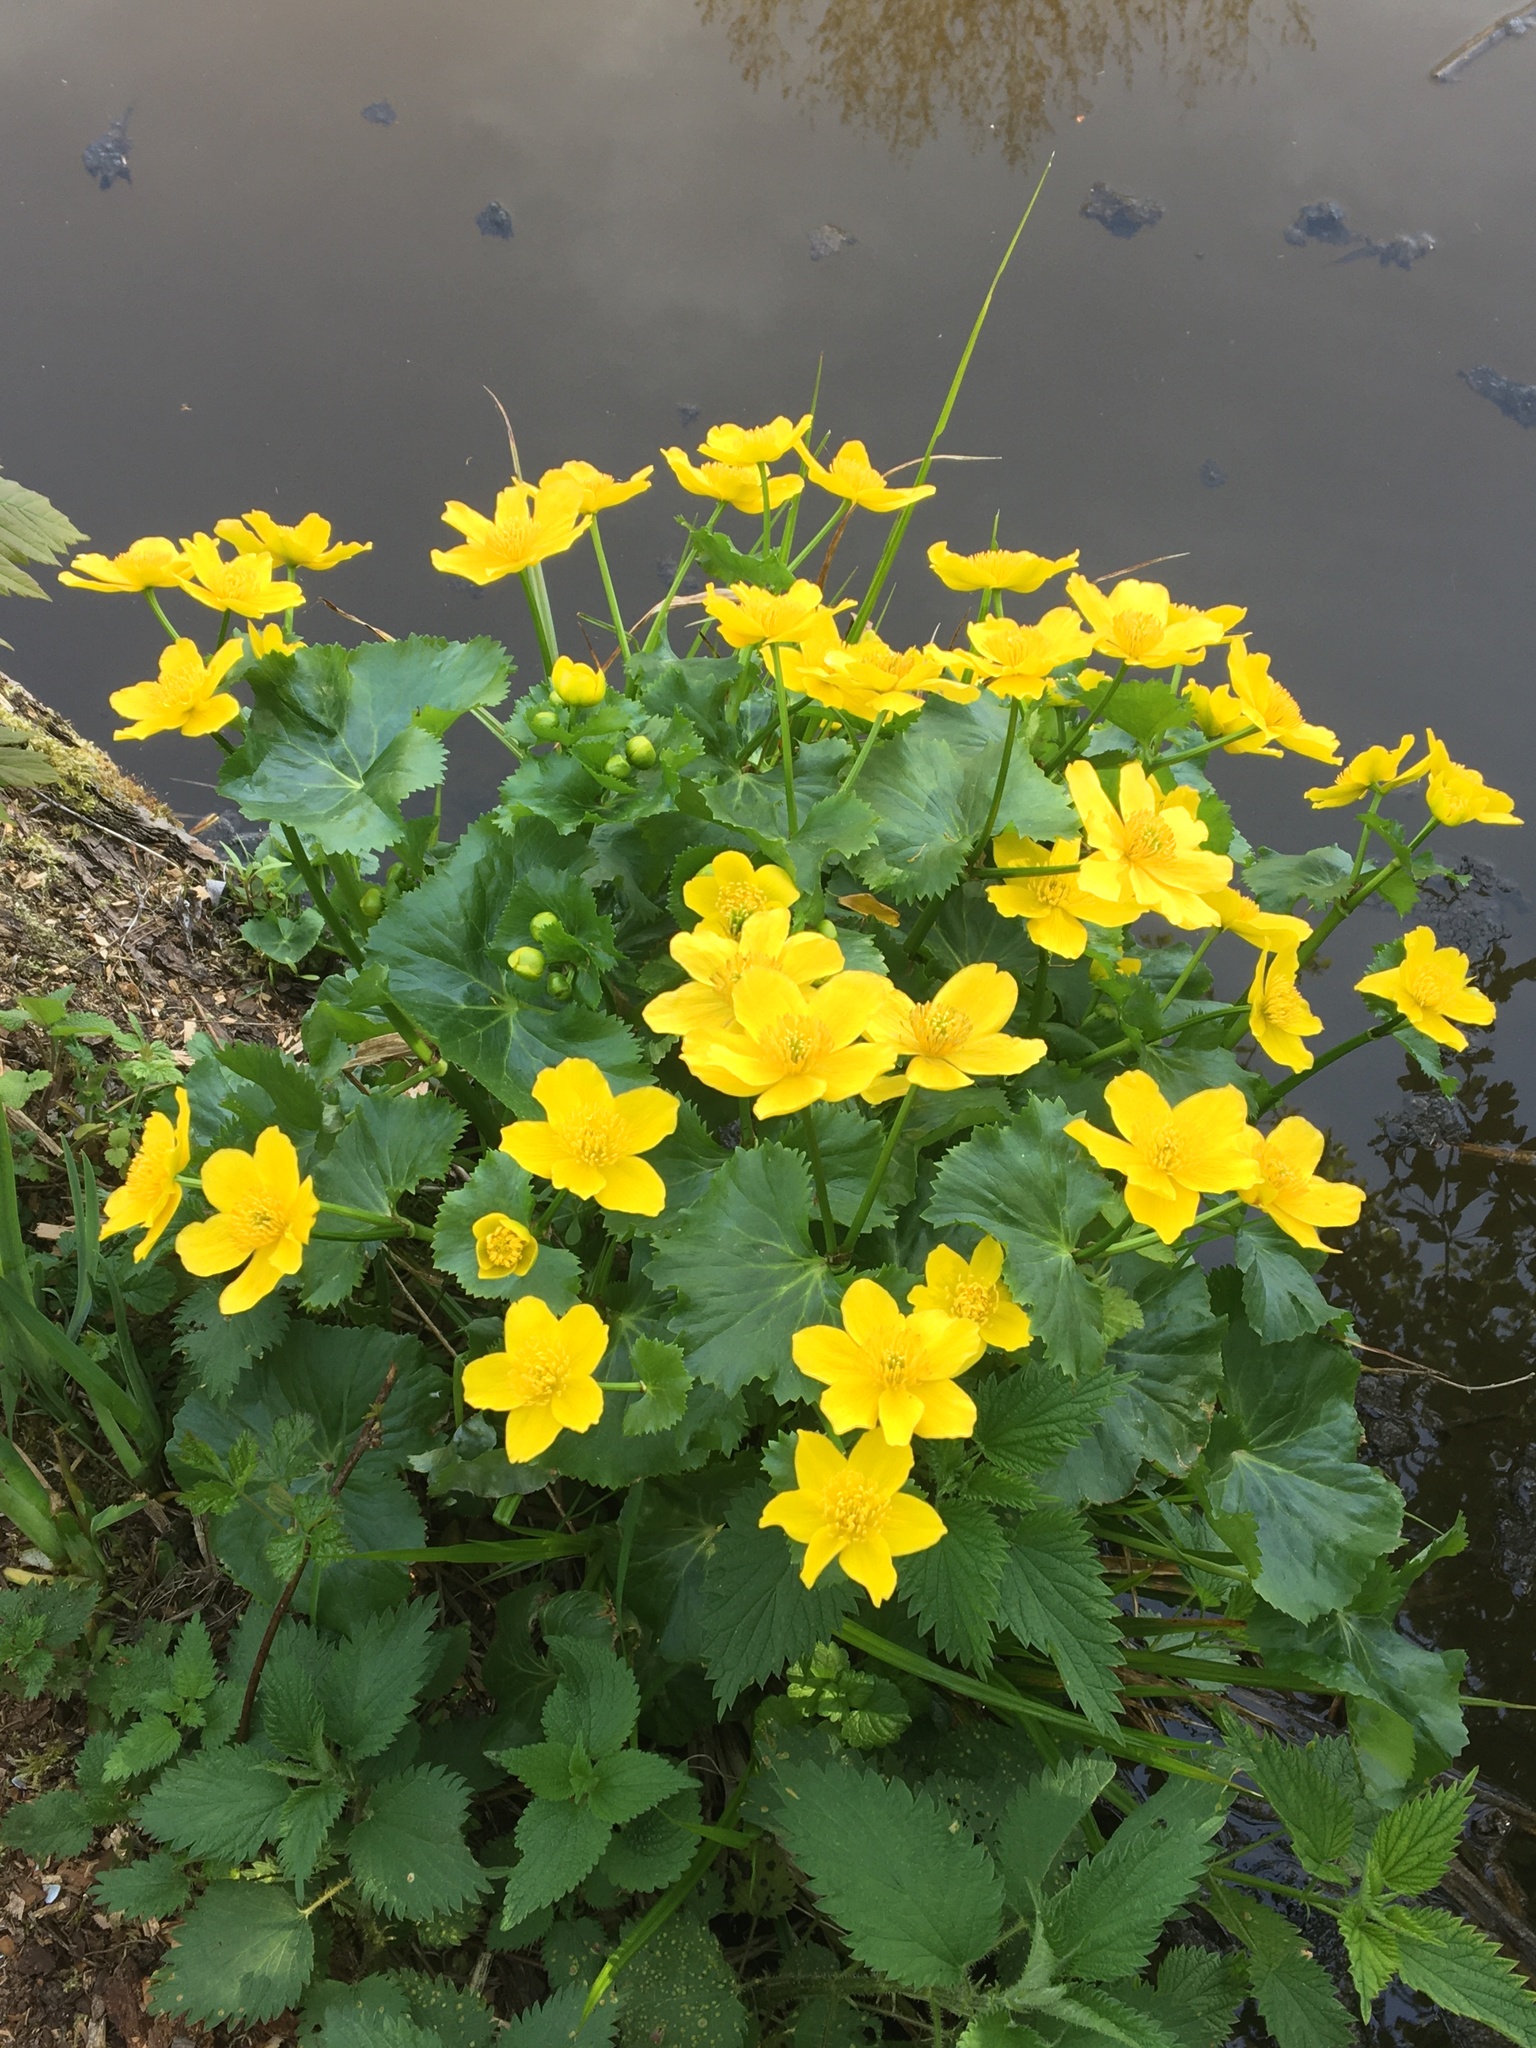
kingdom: Plantae
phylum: Tracheophyta
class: Magnoliopsida
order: Ranunculales
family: Ranunculaceae
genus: Caltha
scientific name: Caltha palustris
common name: Marsh marigold
